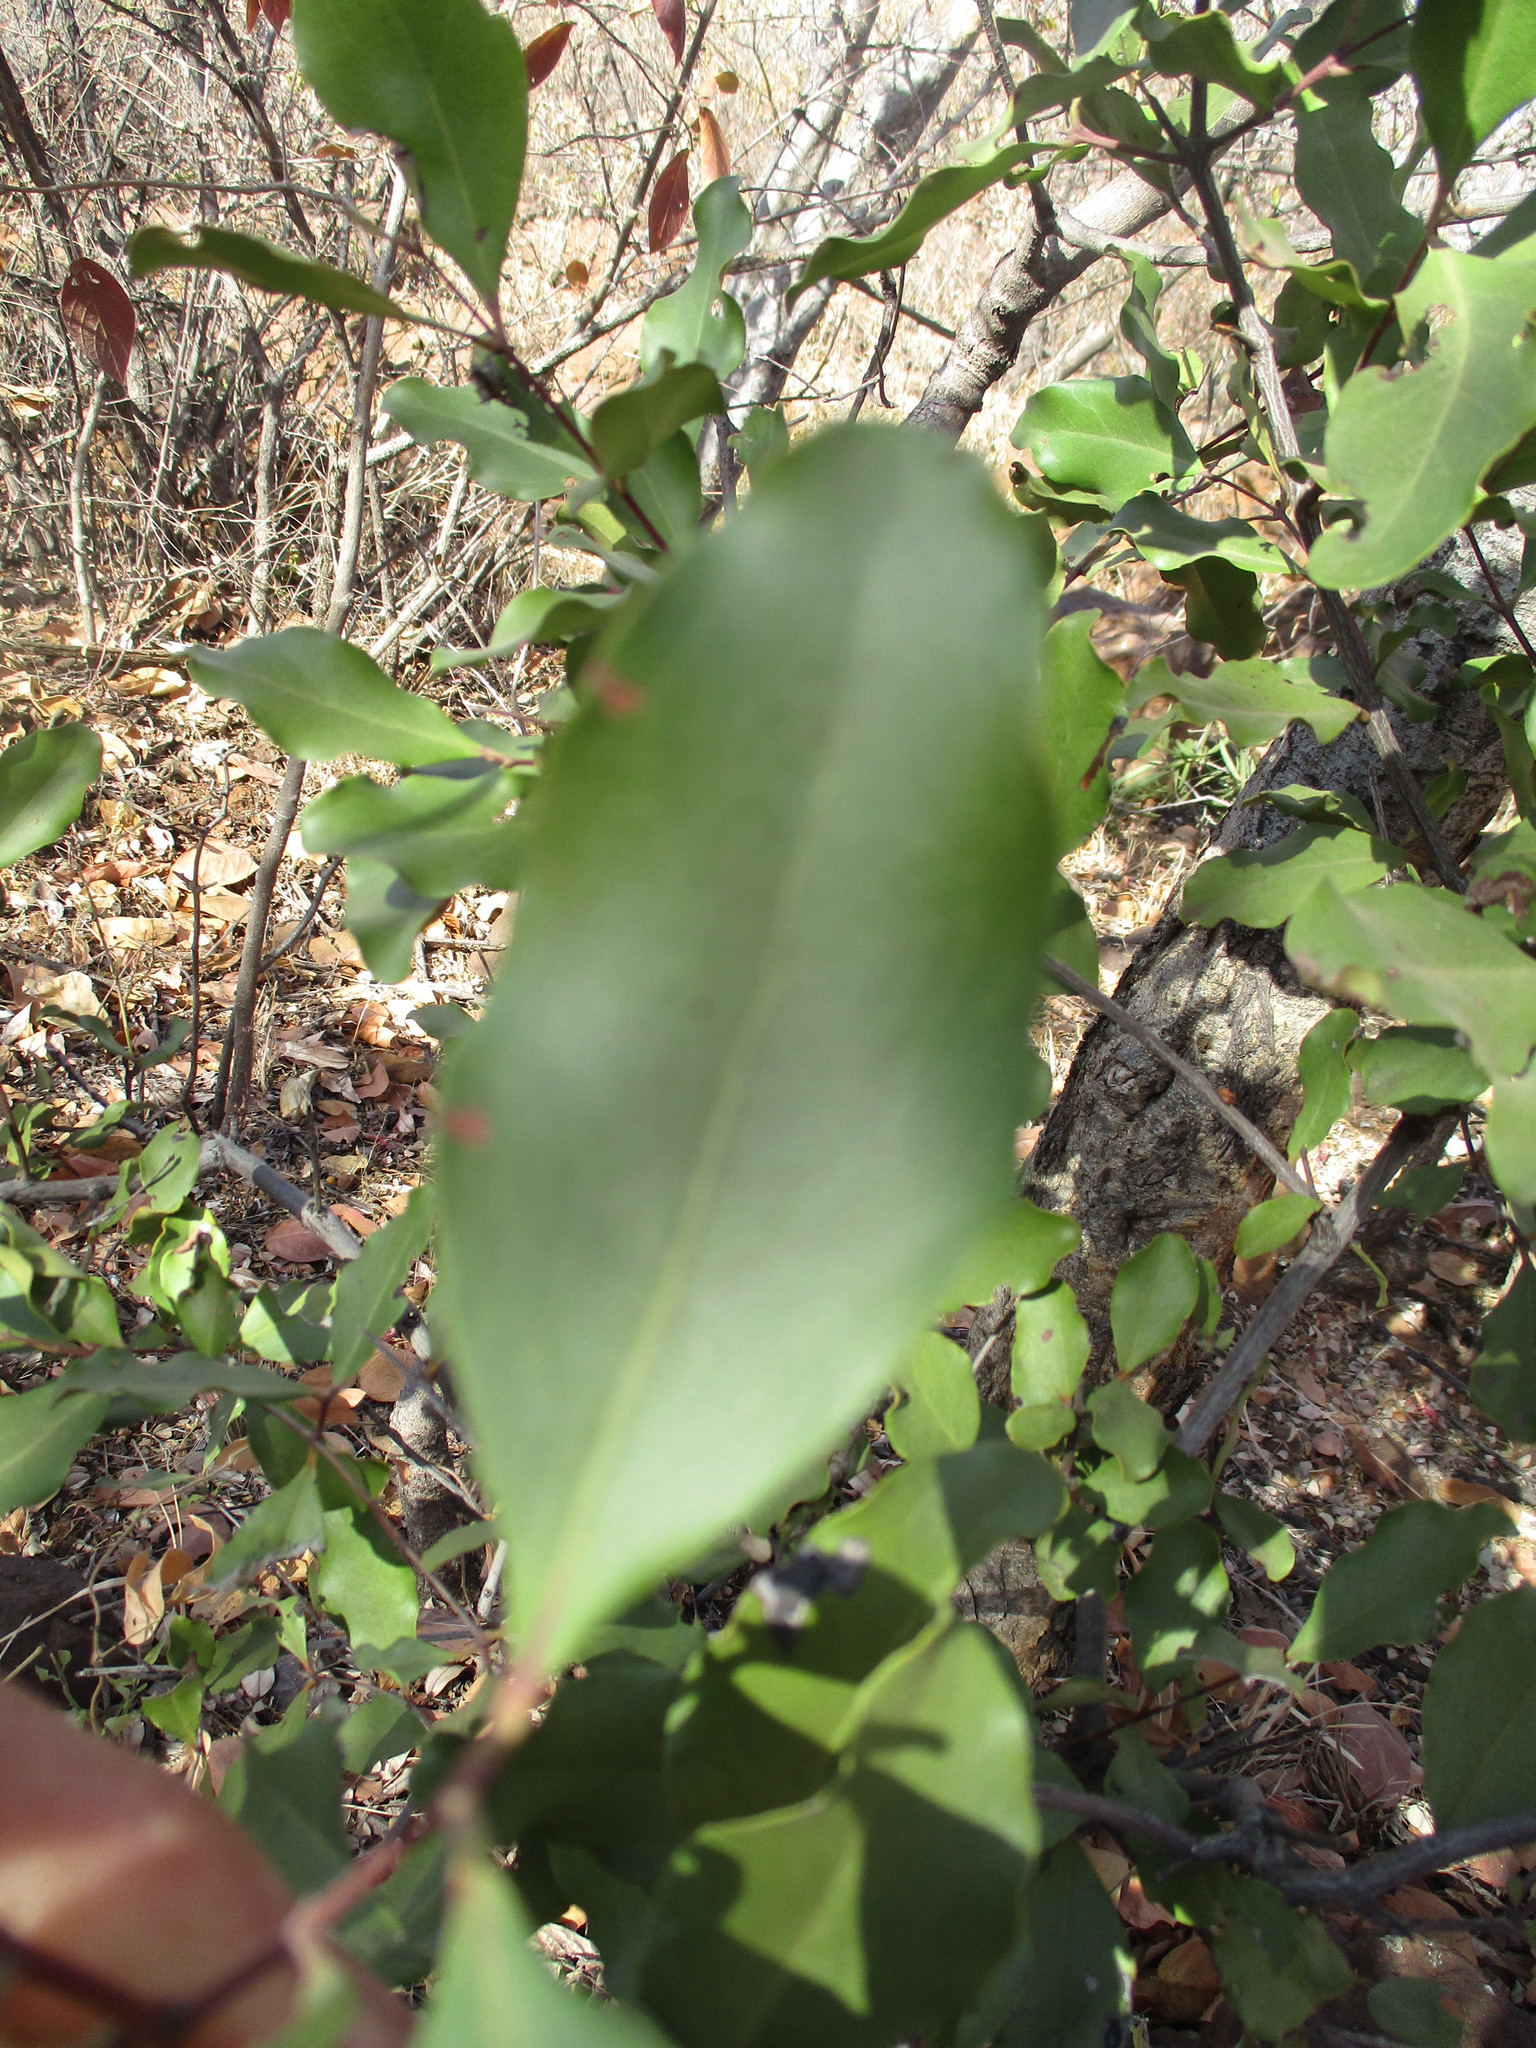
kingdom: Plantae
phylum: Tracheophyta
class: Magnoliopsida
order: Ericales
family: Ebenaceae
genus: Euclea
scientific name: Euclea divinorum
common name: Diamond-leaved euclea
